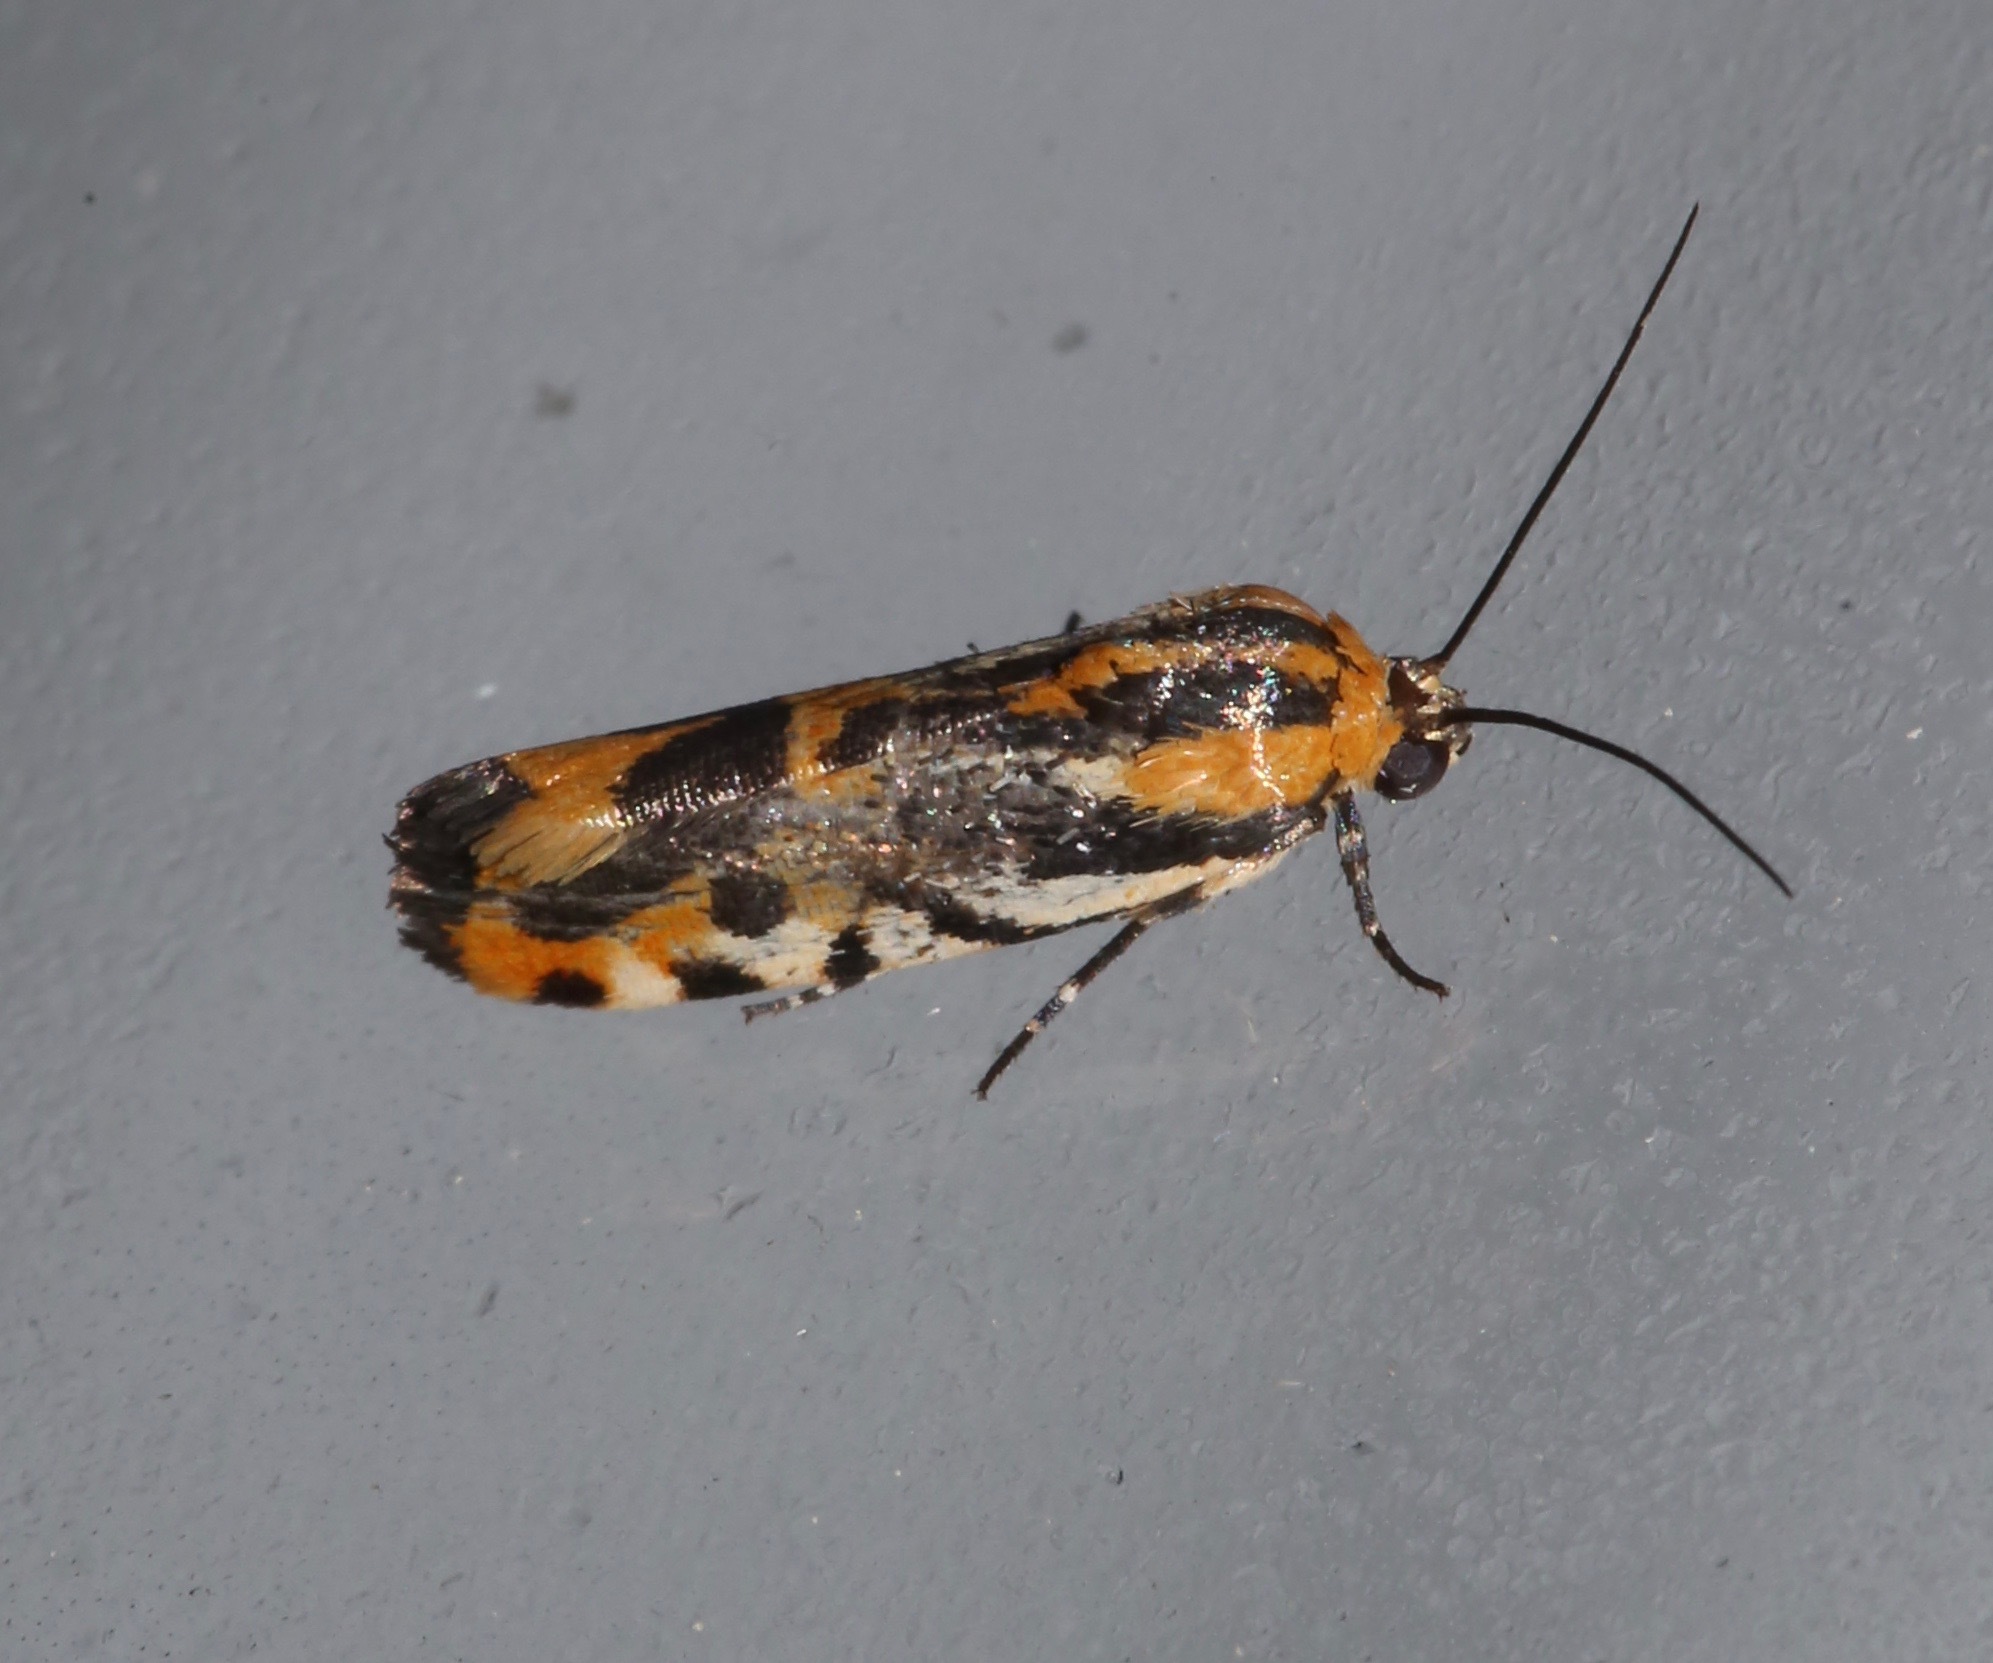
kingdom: Animalia
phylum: Arthropoda
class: Insecta
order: Lepidoptera
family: Noctuidae
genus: Acontia
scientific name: Acontia onagrus
